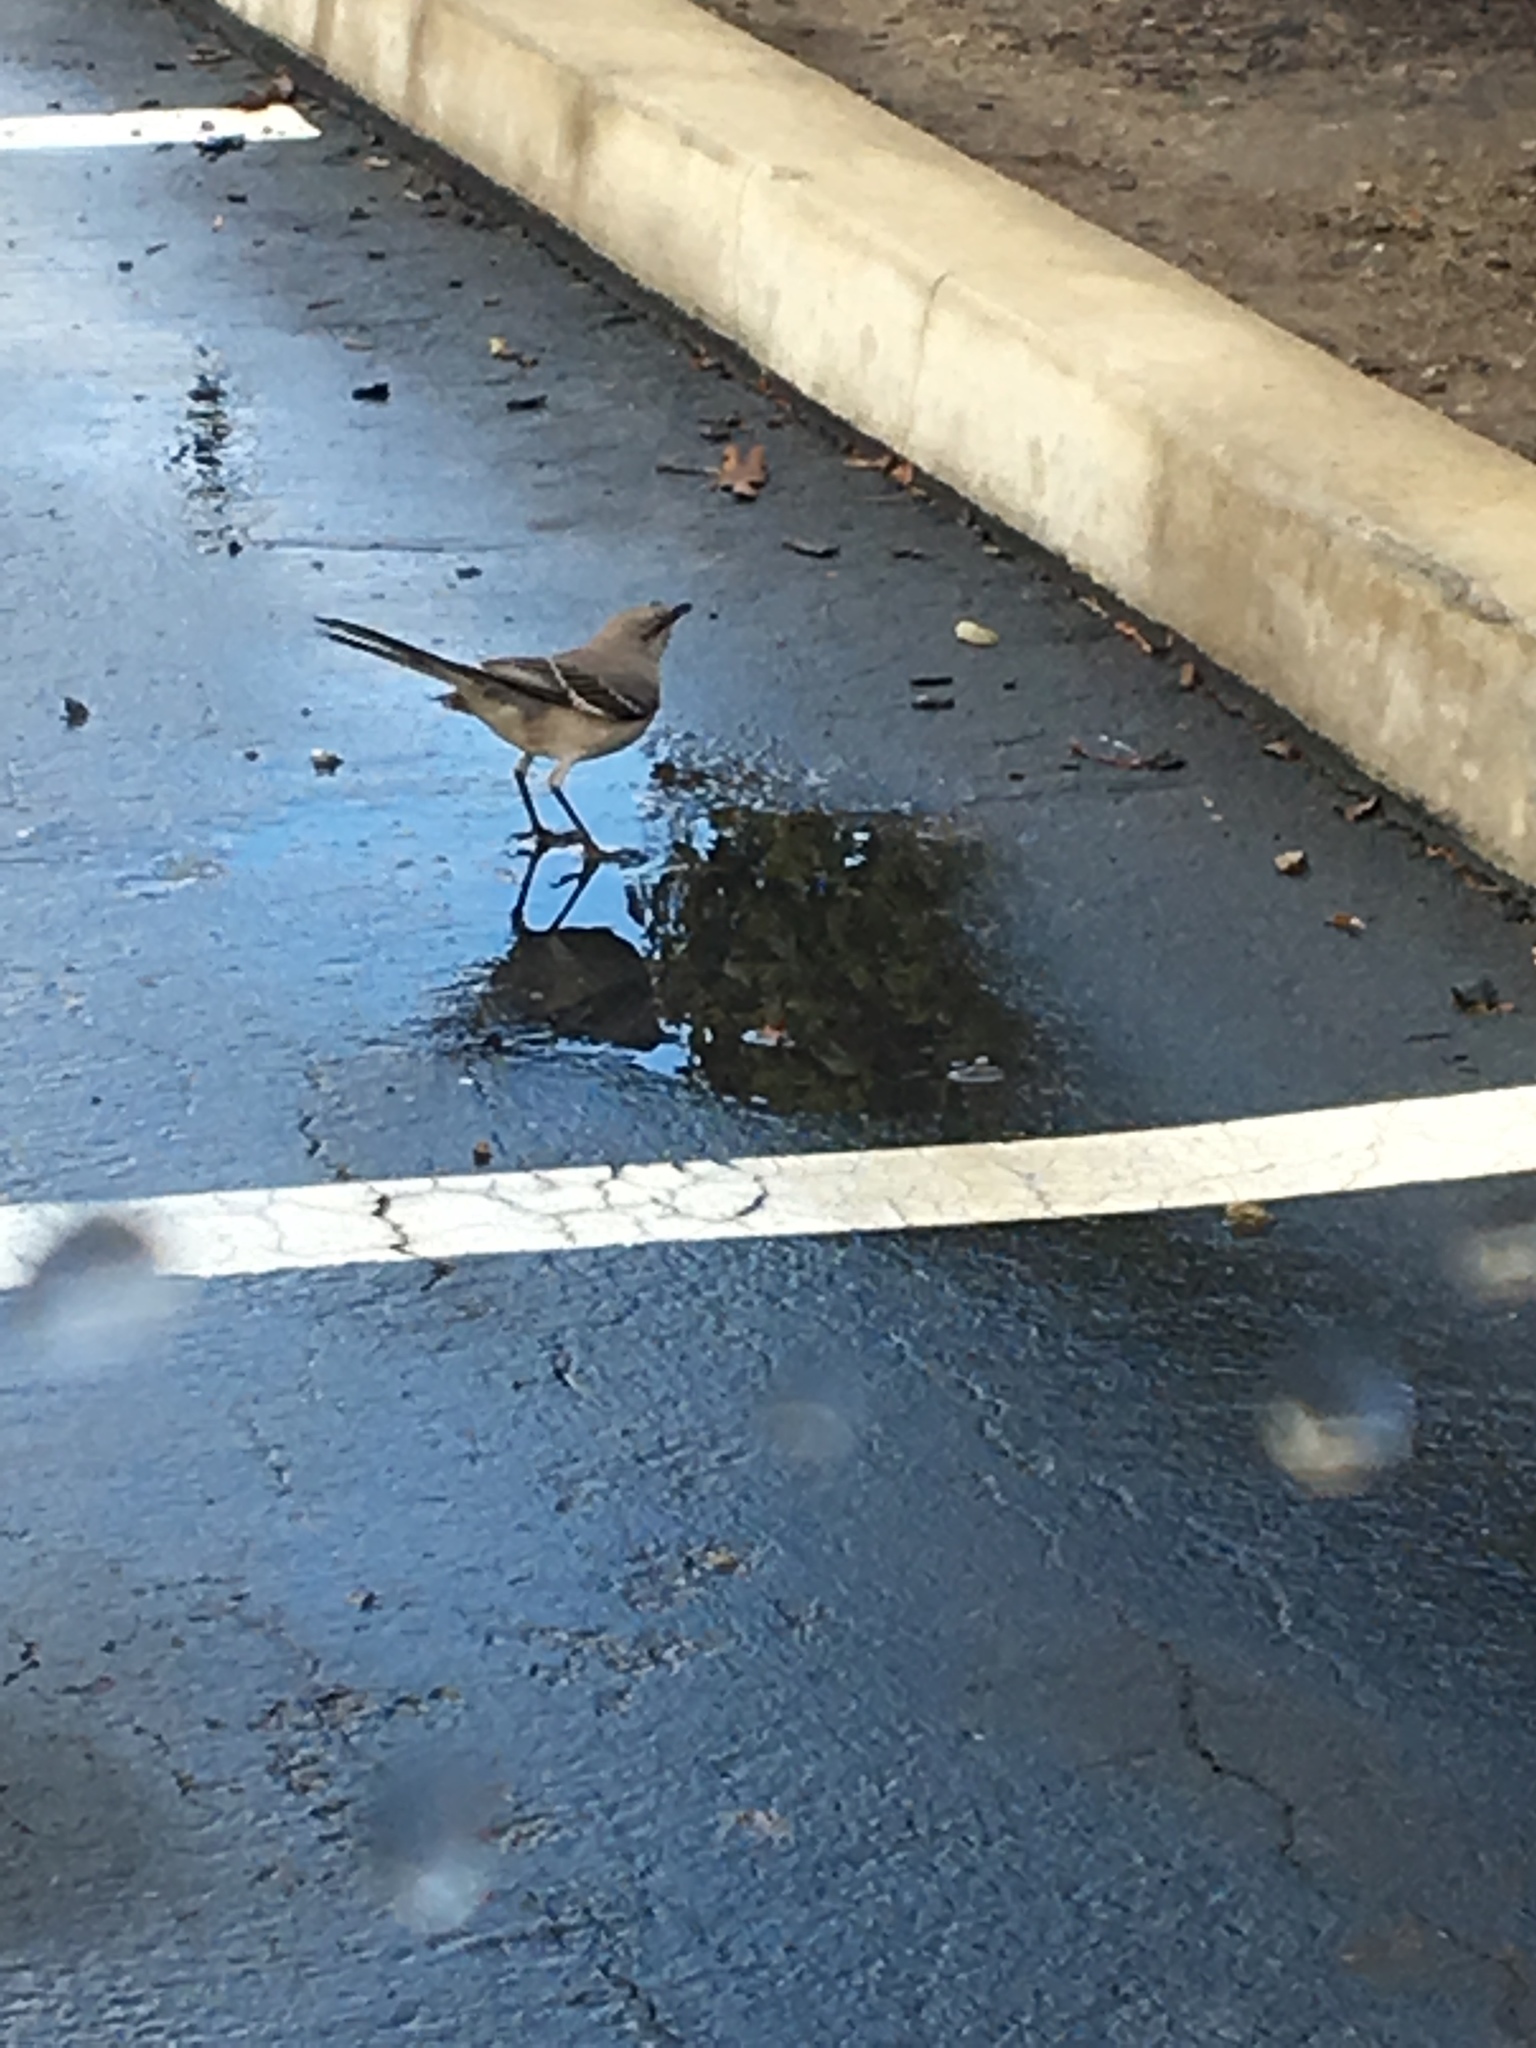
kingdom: Animalia
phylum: Chordata
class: Aves
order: Passeriformes
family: Mimidae
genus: Mimus
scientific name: Mimus polyglottos
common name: Northern mockingbird
